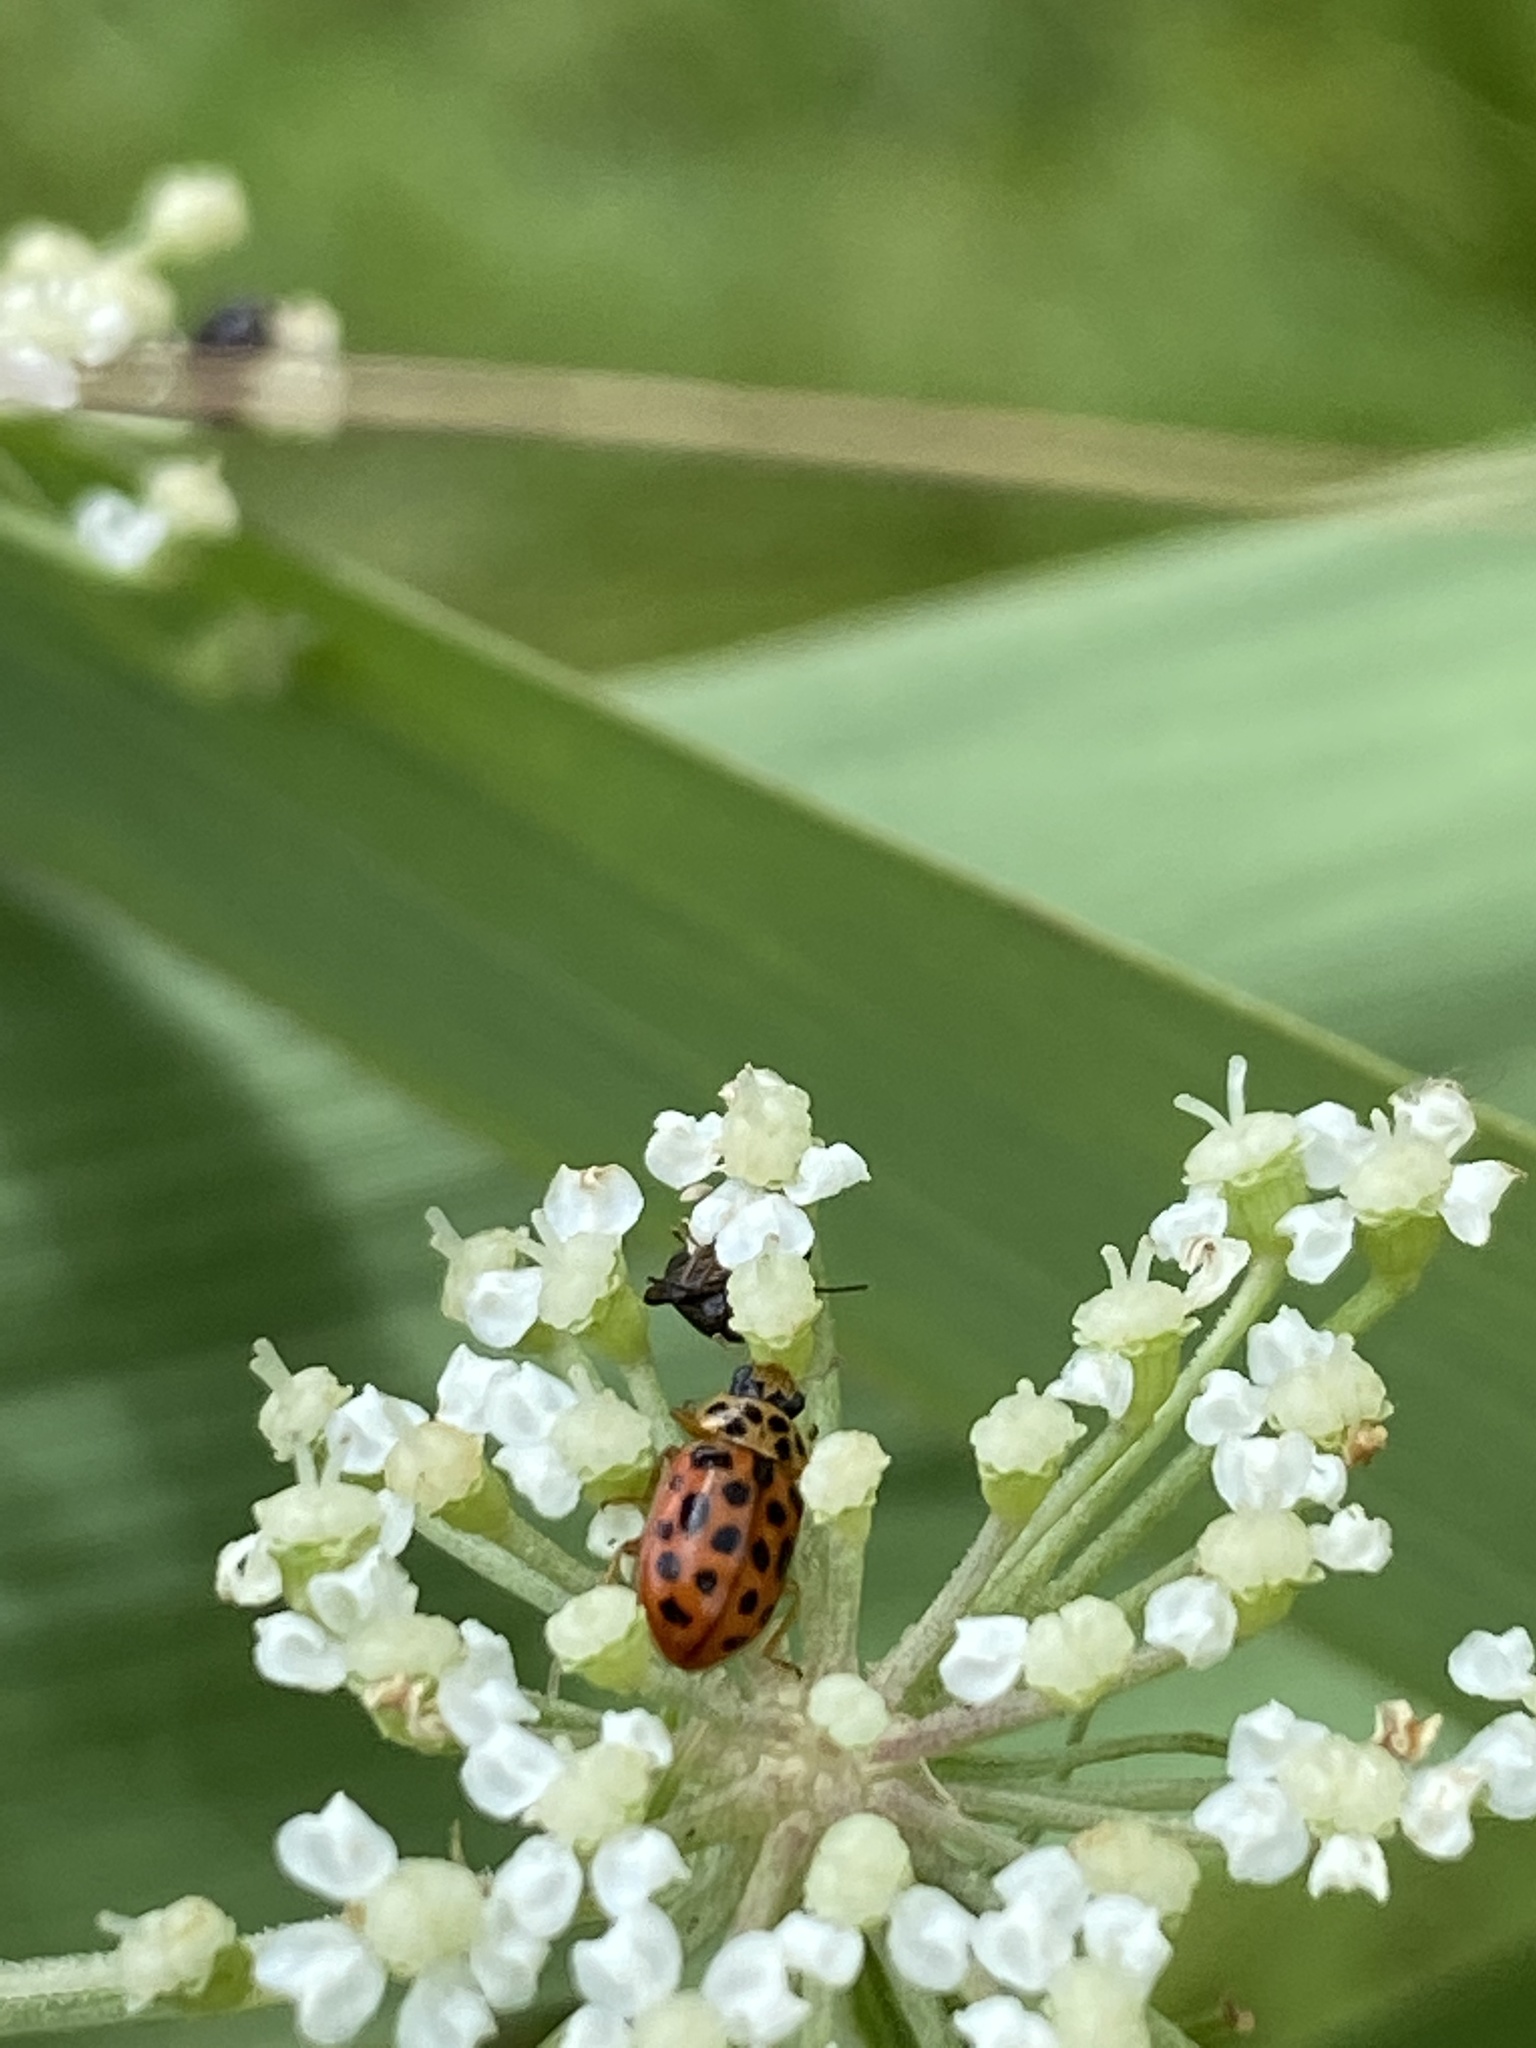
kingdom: Animalia
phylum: Arthropoda
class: Insecta
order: Coleoptera
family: Coccinellidae
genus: Anisosticta
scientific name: Anisosticta novemdecimpunctata
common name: Water ladybird
